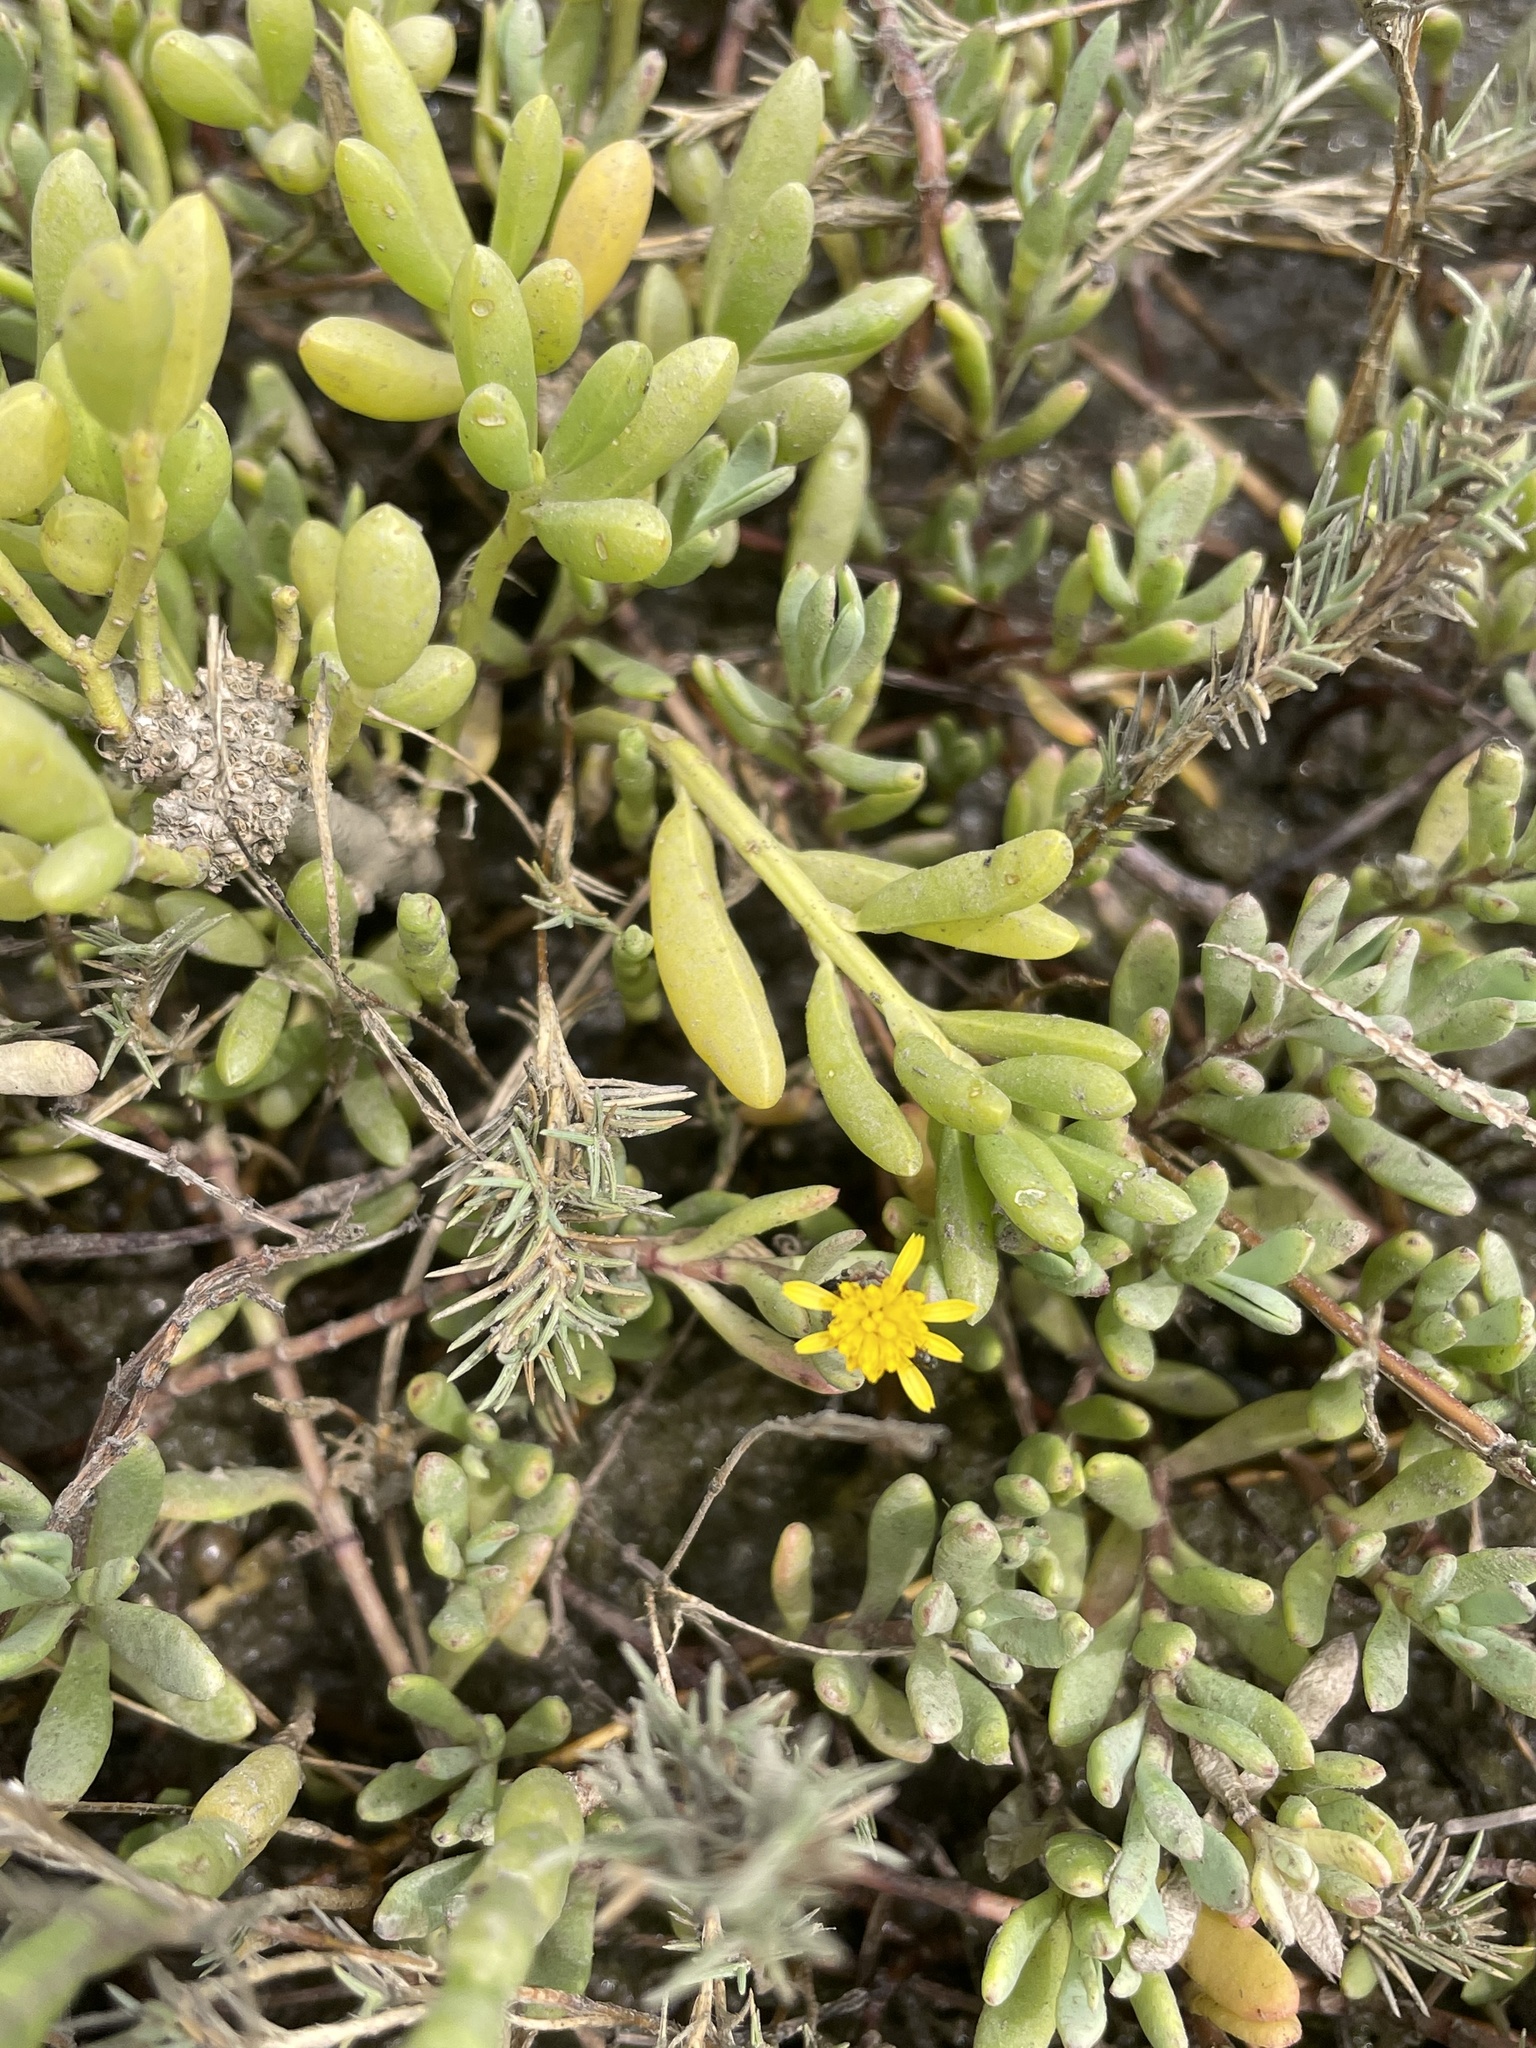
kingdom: Plantae
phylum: Tracheophyta
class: Magnoliopsida
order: Asterales
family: Asteraceae
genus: Jaumea
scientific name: Jaumea carnosa
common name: Fleshy jaumea
